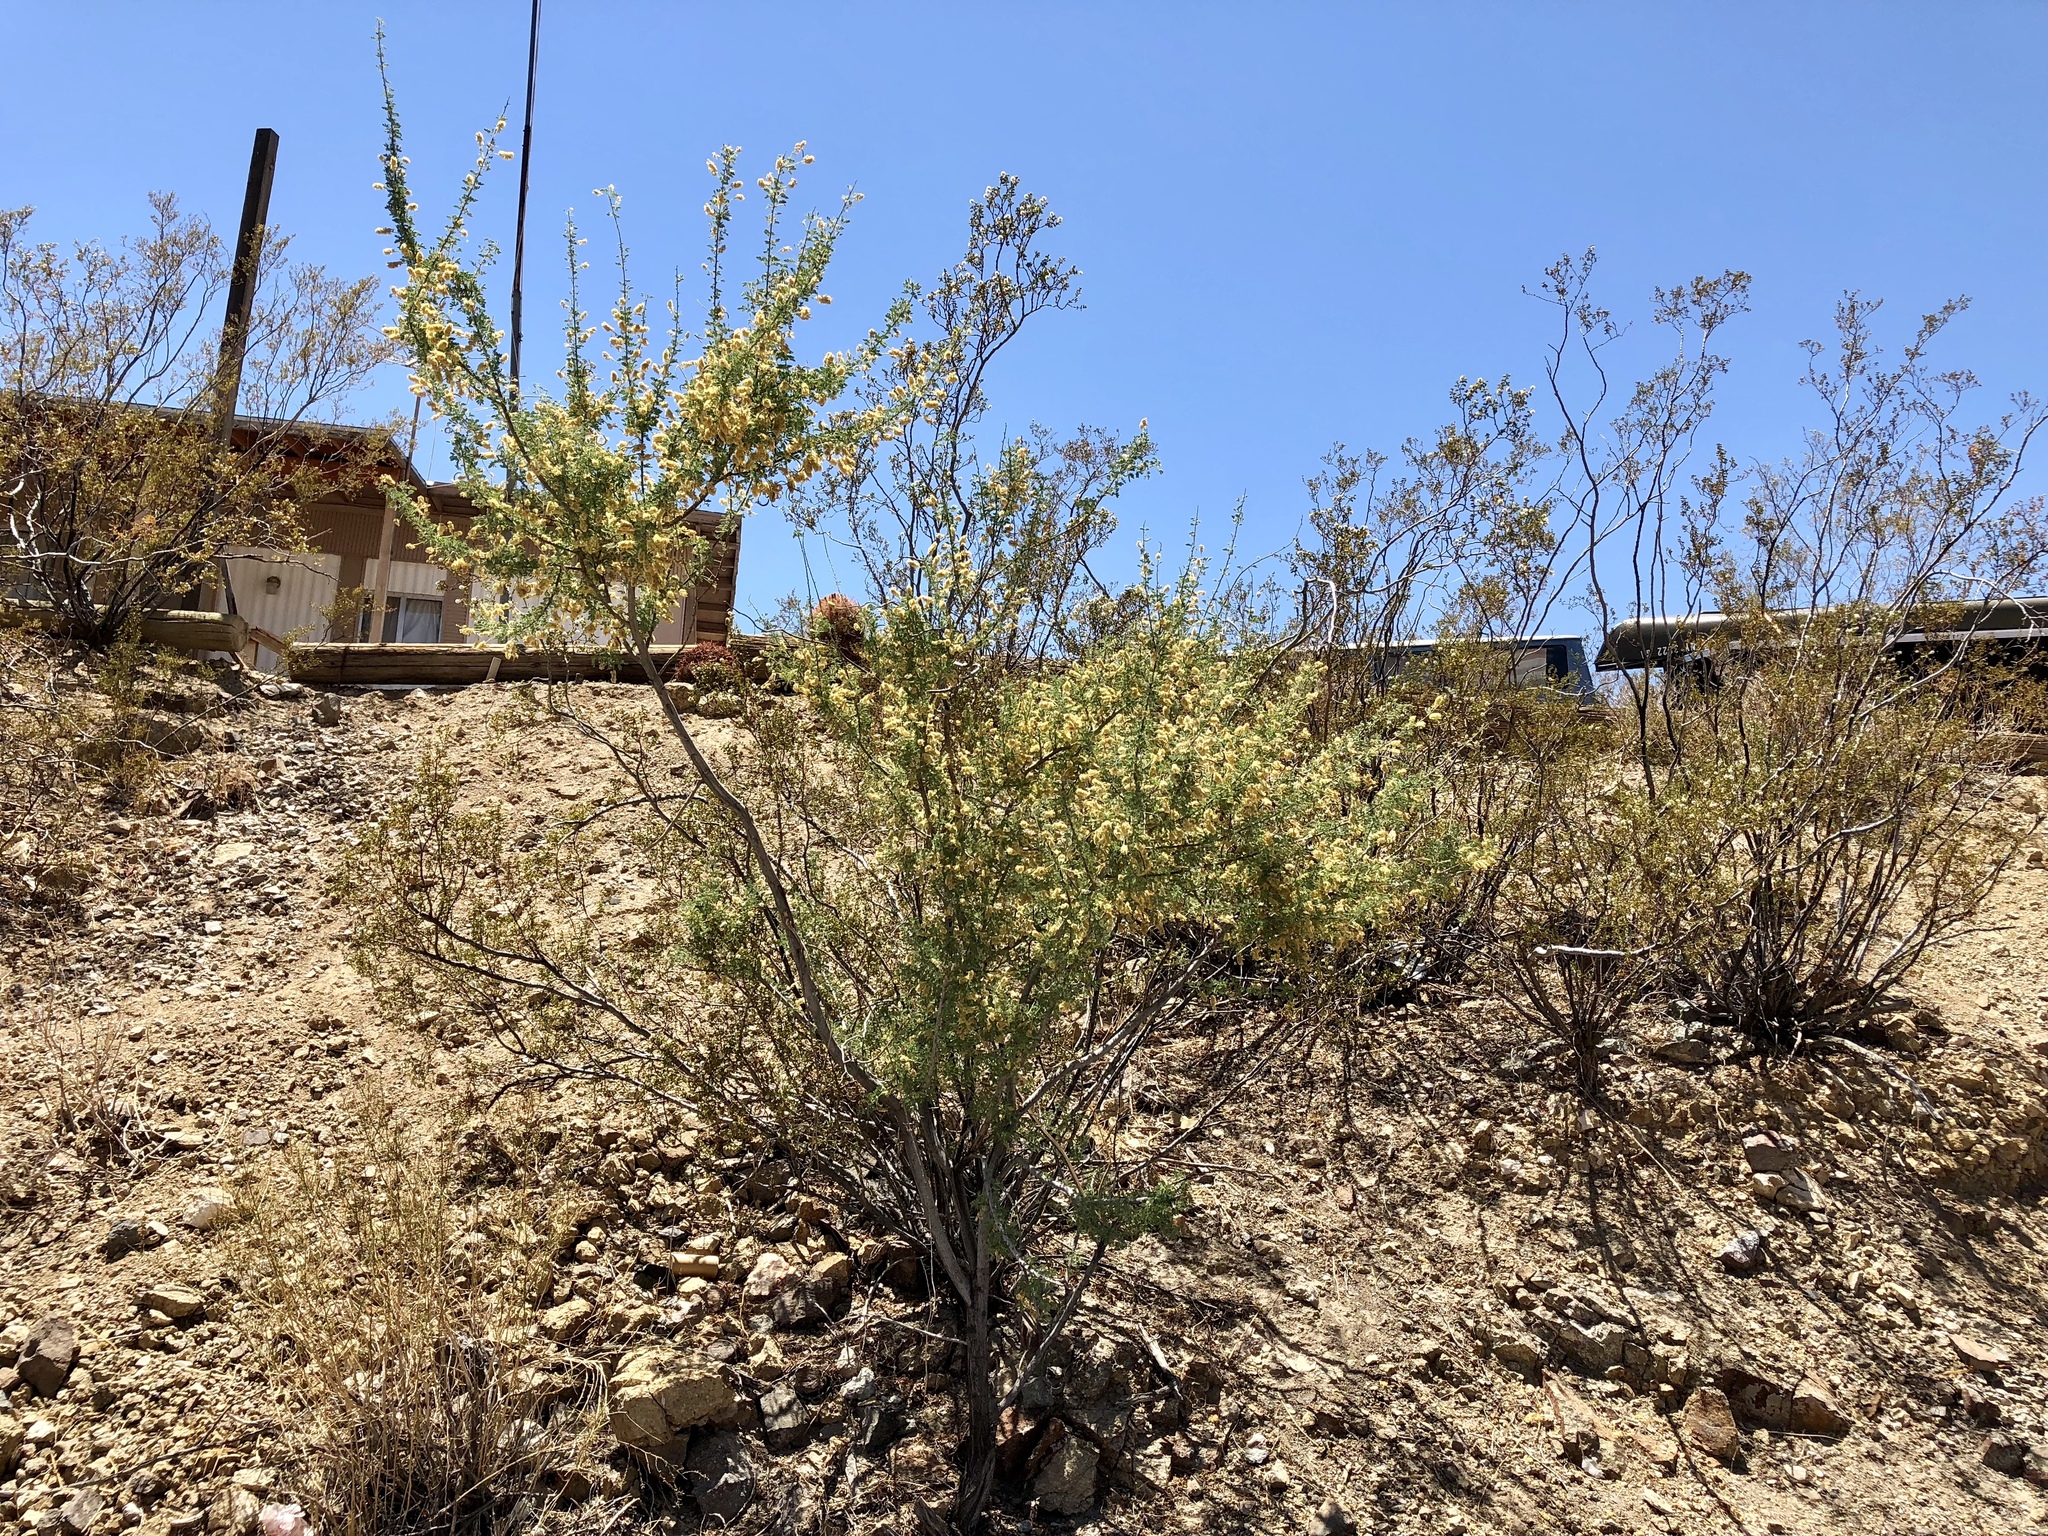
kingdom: Plantae
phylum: Tracheophyta
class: Magnoliopsida
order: Fabales
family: Fabaceae
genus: Senegalia
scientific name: Senegalia greggii
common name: Texas-mimosa
